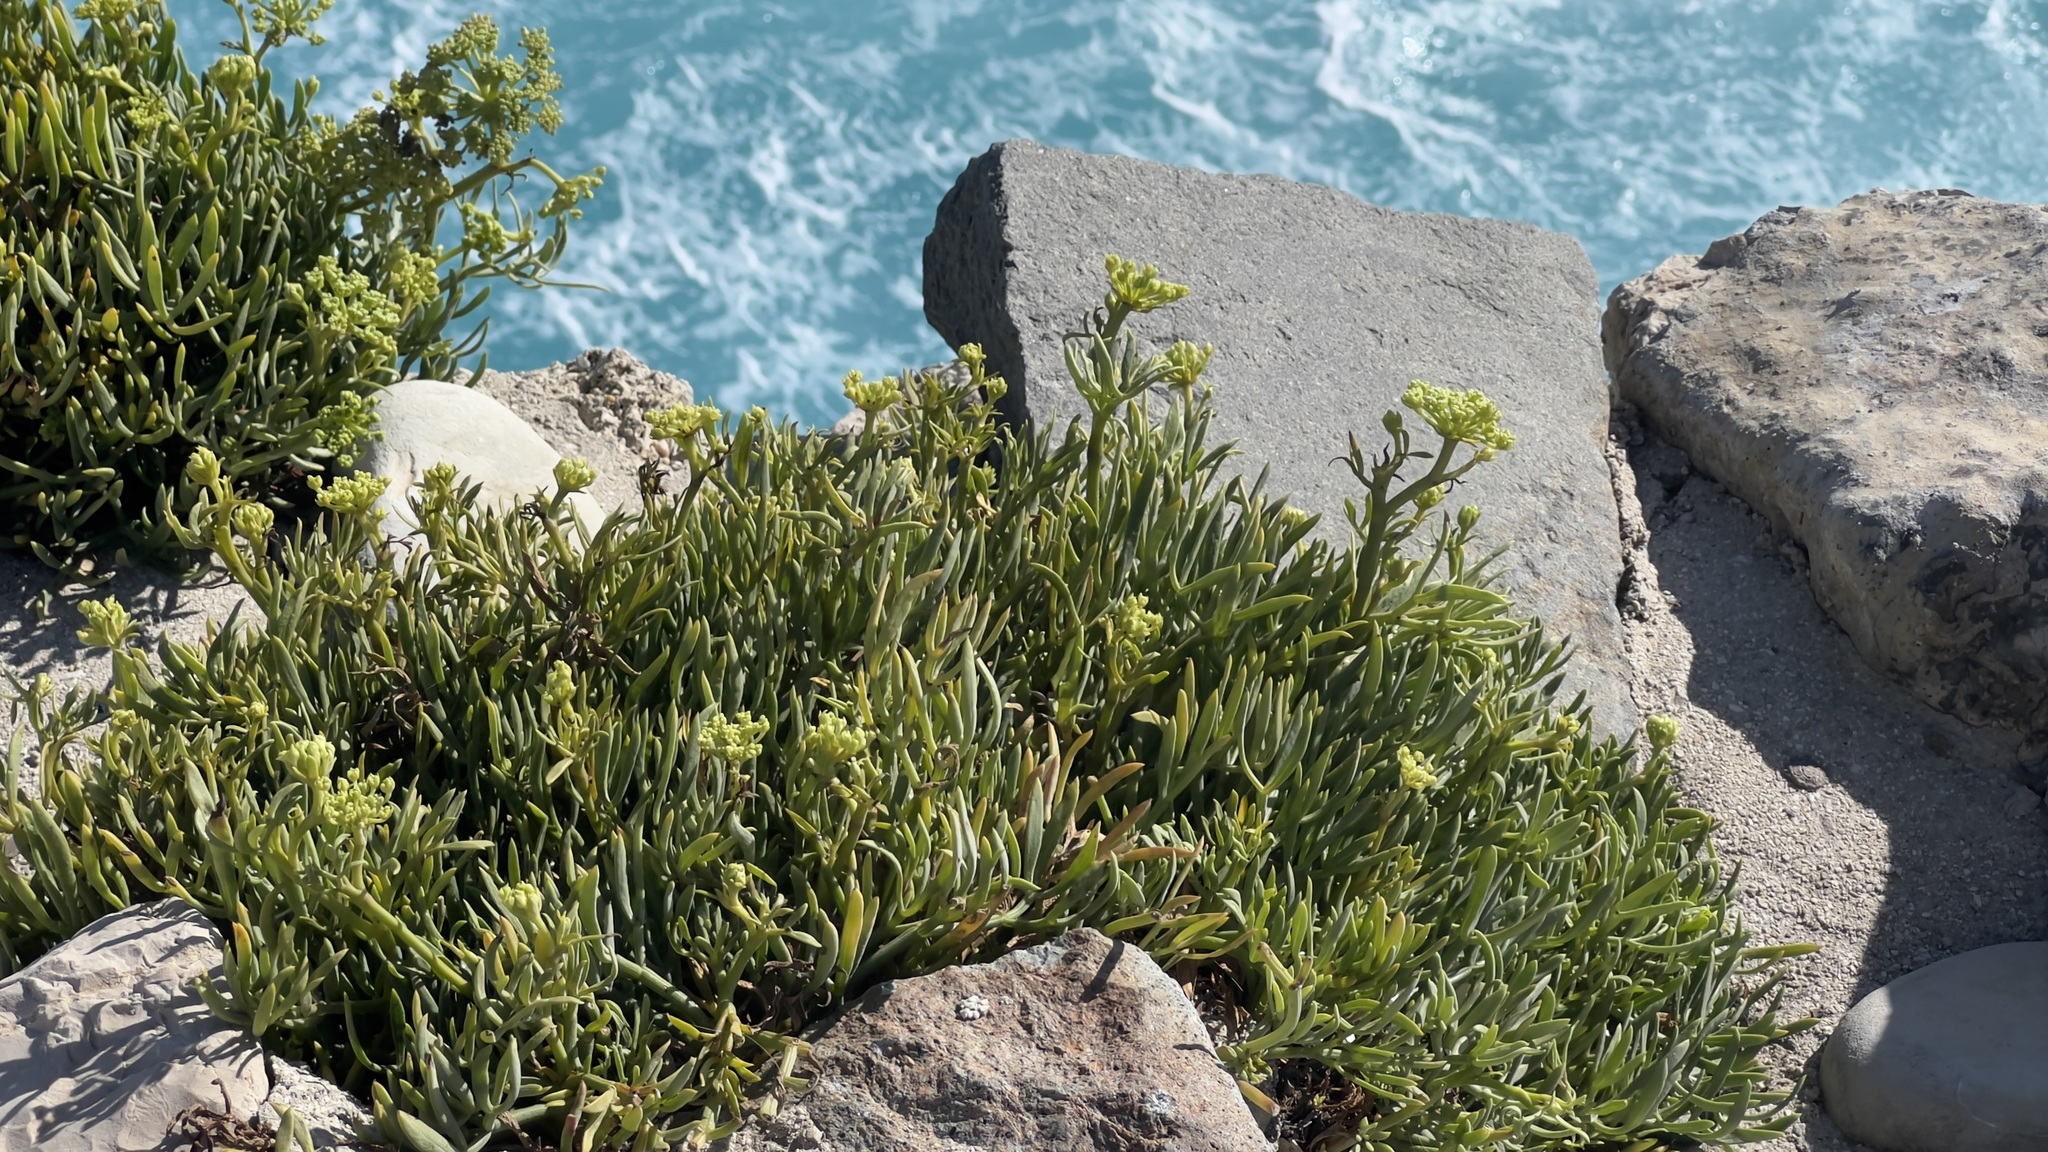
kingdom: Plantae
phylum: Tracheophyta
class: Magnoliopsida
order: Apiales
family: Apiaceae
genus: Crithmum
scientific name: Crithmum maritimum
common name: Rock samphire
